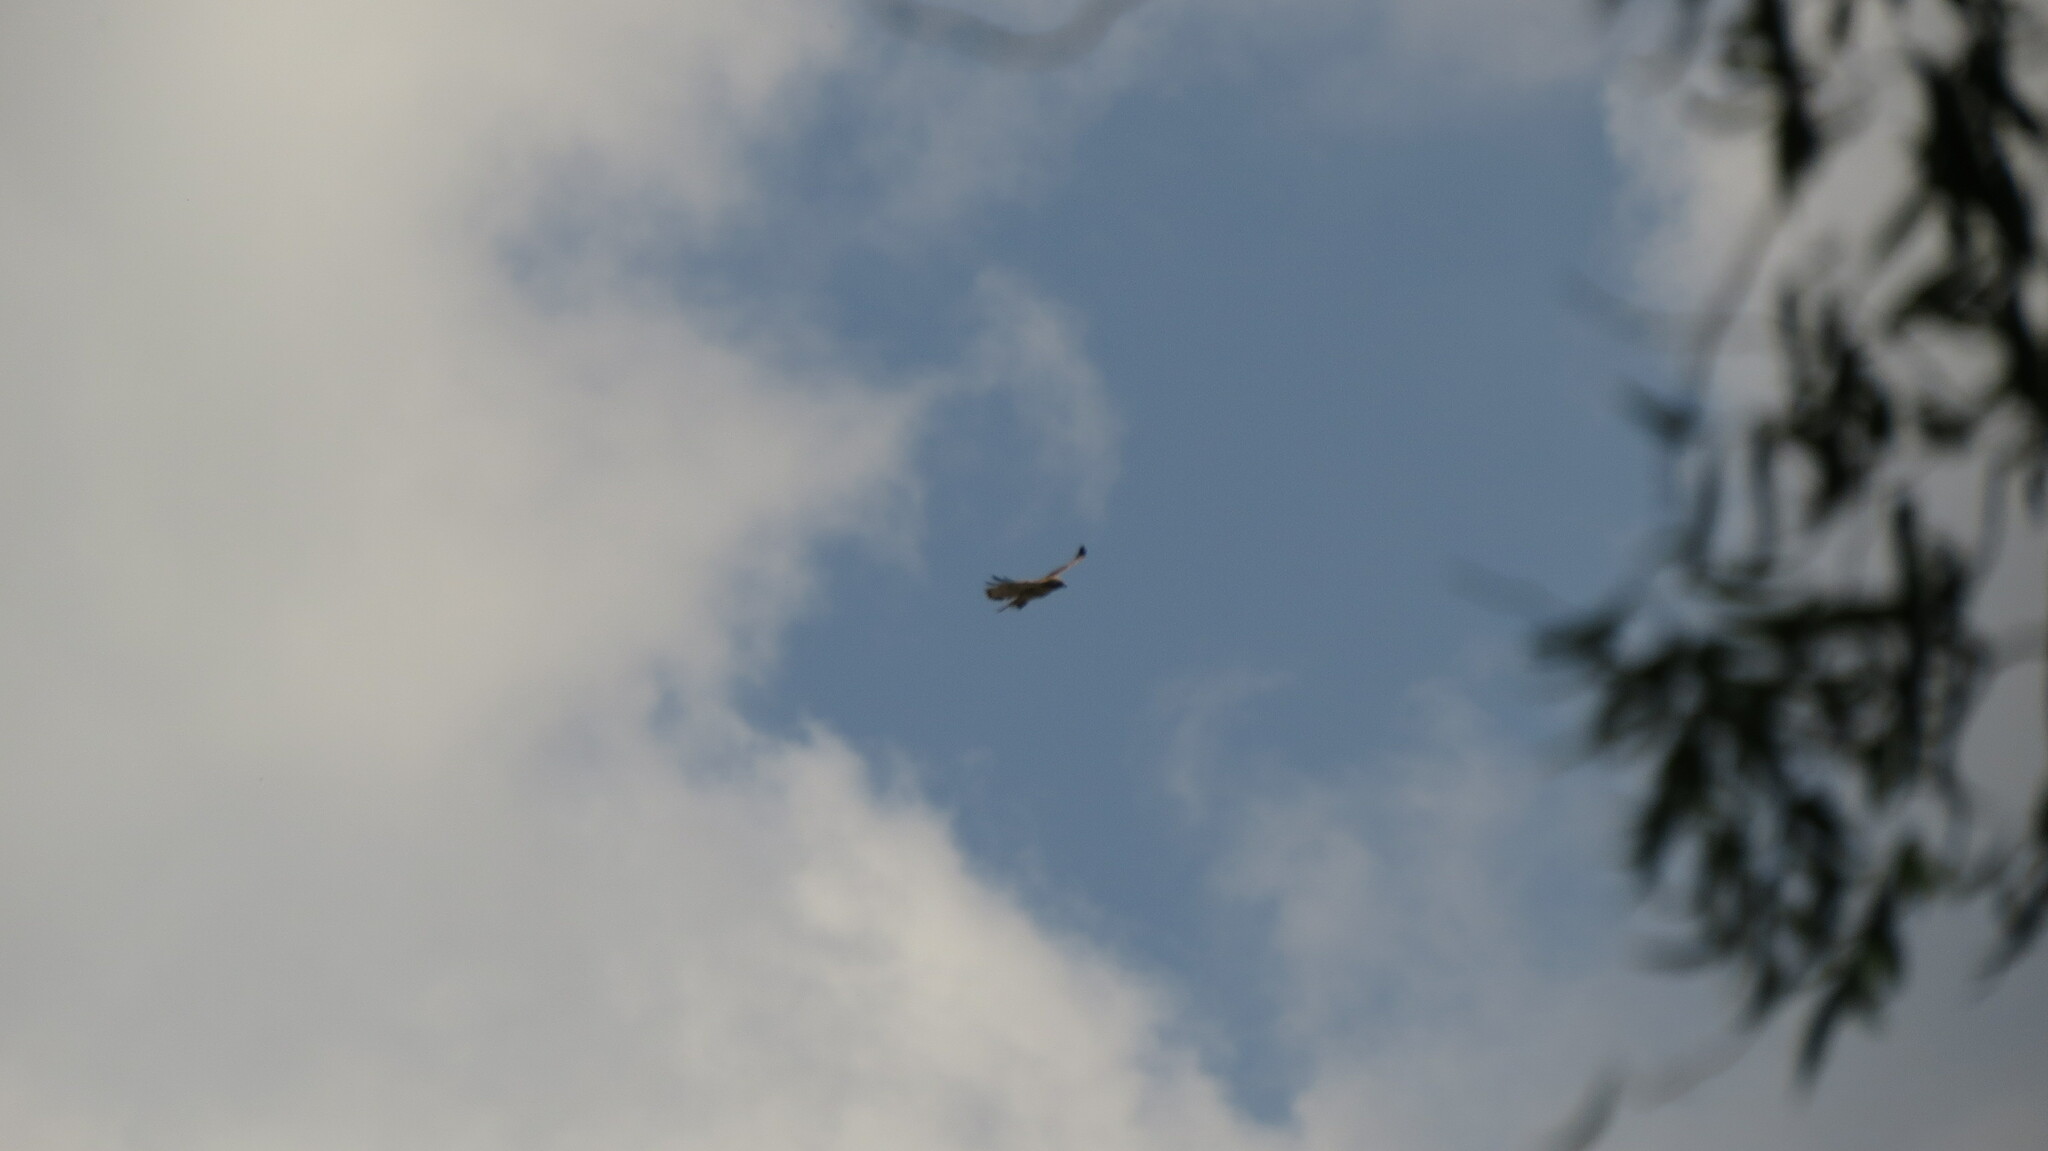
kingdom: Animalia
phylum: Chordata
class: Aves
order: Accipitriformes
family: Accipitridae
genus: Buteo
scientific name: Buteo jamaicensis
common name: Red-tailed hawk
